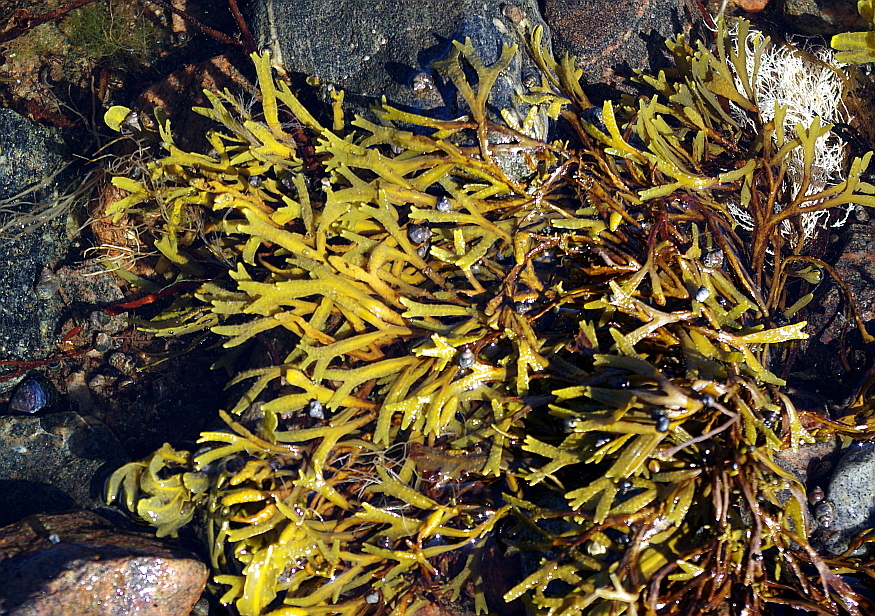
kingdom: Chromista
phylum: Ochrophyta
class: Phaeophyceae
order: Fucales
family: Fucaceae
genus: Fucus
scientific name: Fucus serratus
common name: Toothed wrack
